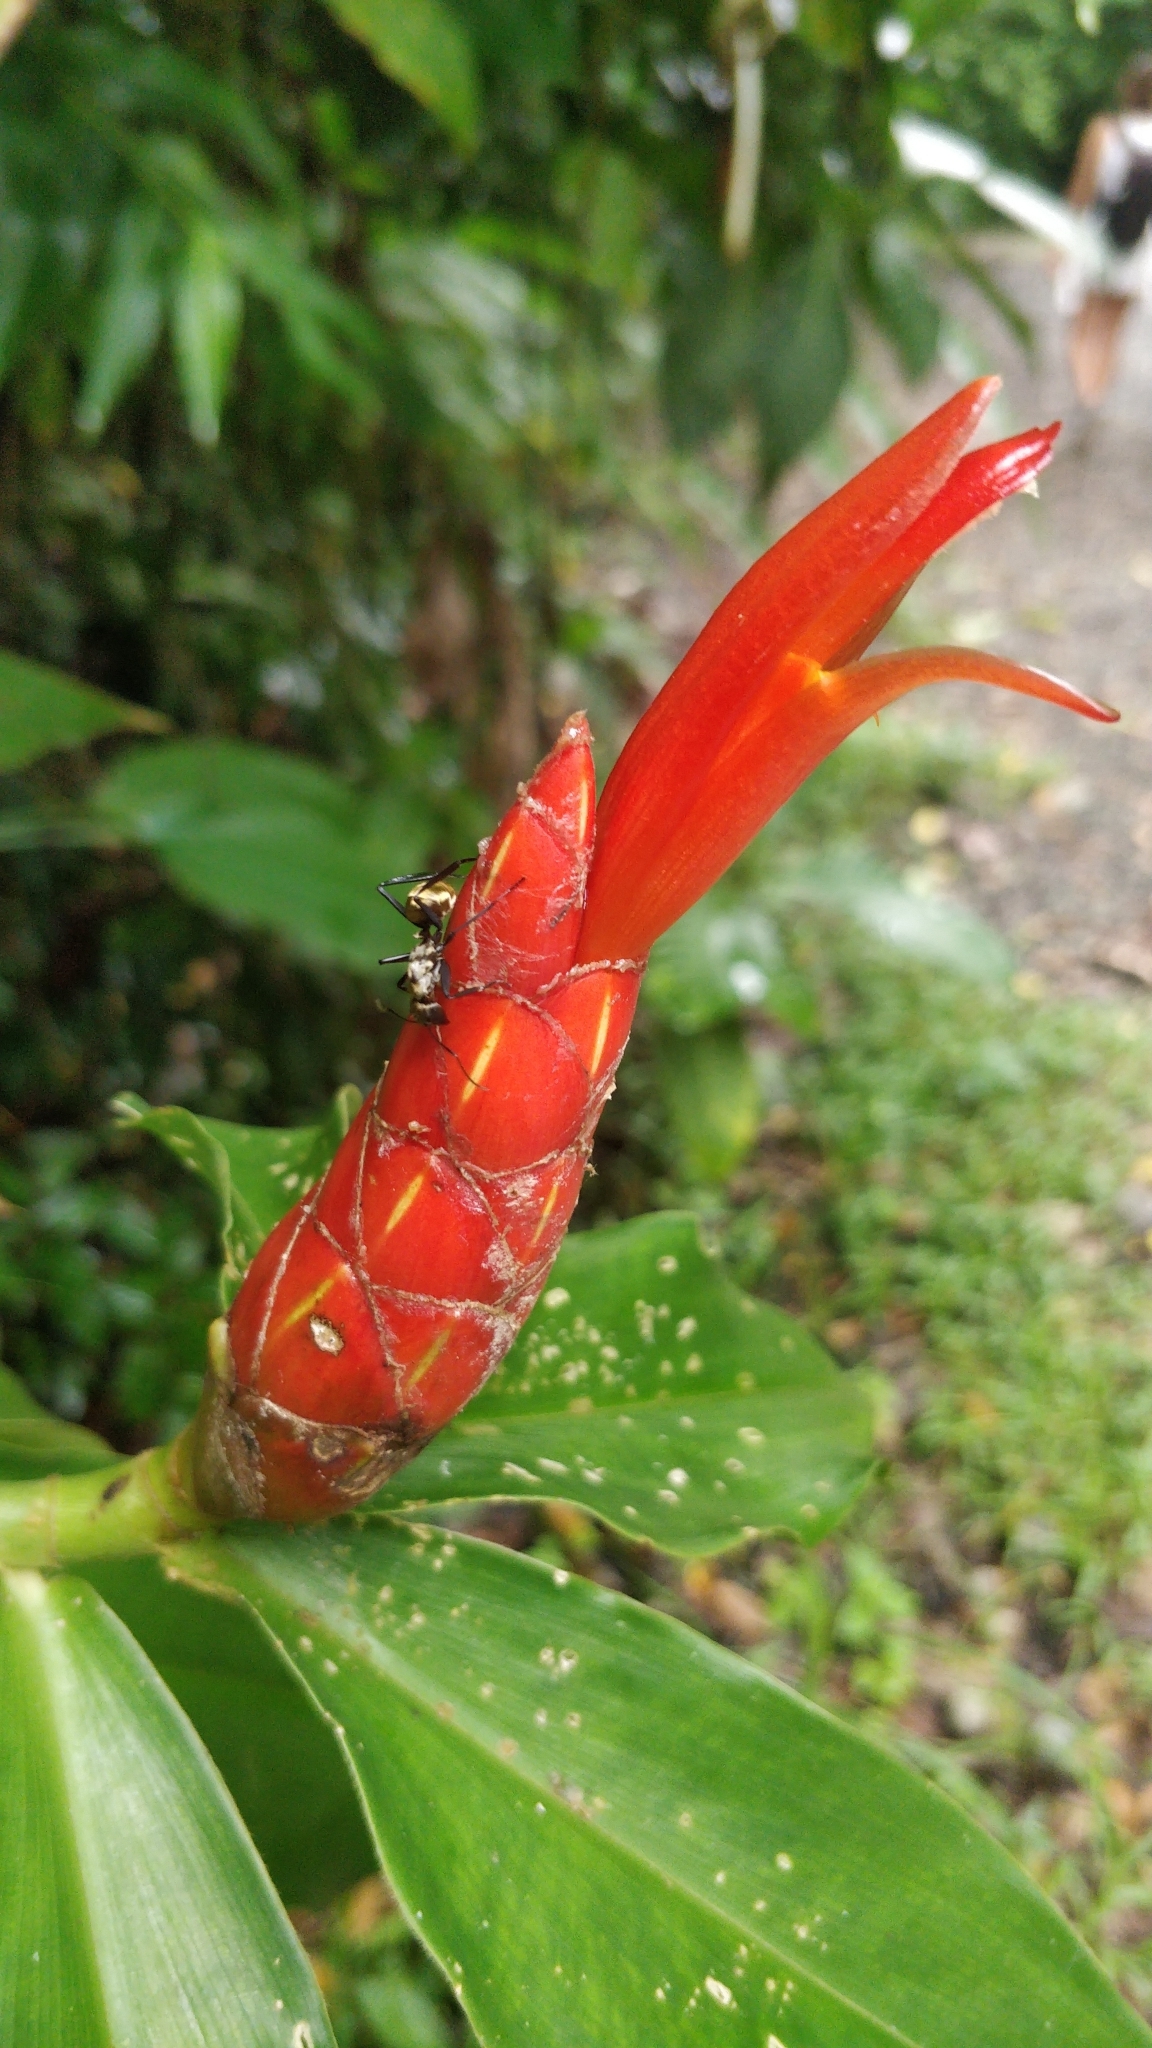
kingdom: Plantae
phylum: Tracheophyta
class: Liliopsida
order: Zingiberales
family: Costaceae
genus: Costus
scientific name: Costus pulverulentus
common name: Spiral ginger
